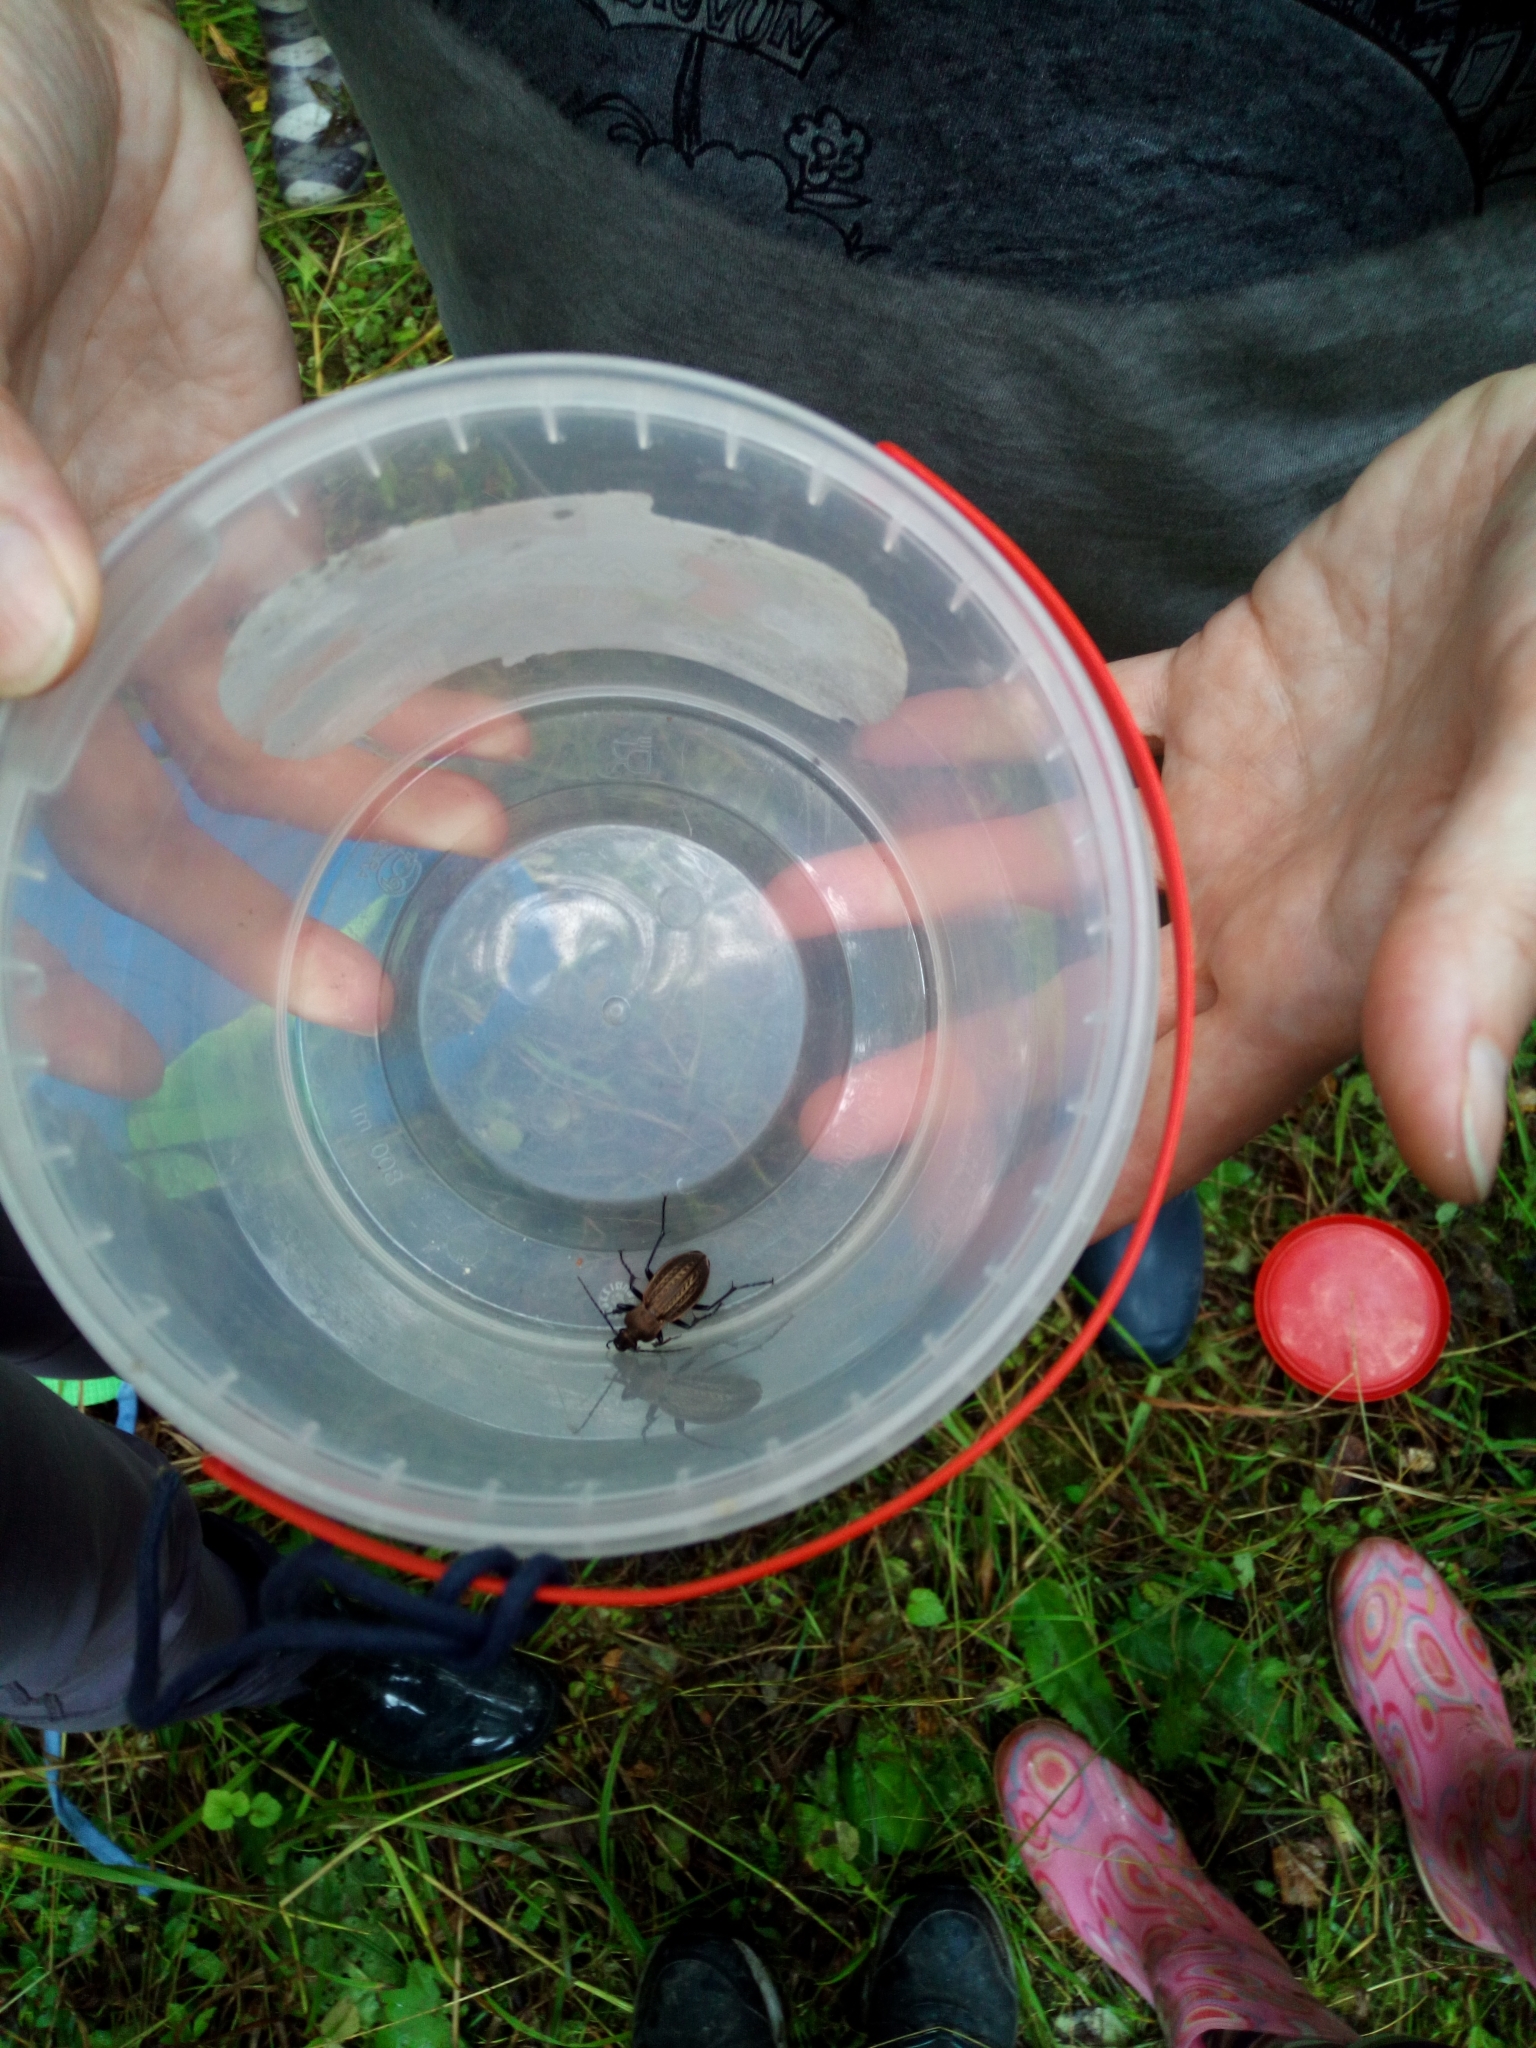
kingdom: Animalia
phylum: Arthropoda
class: Insecta
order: Coleoptera
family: Carabidae
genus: Carabus
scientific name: Carabus cancellatus
